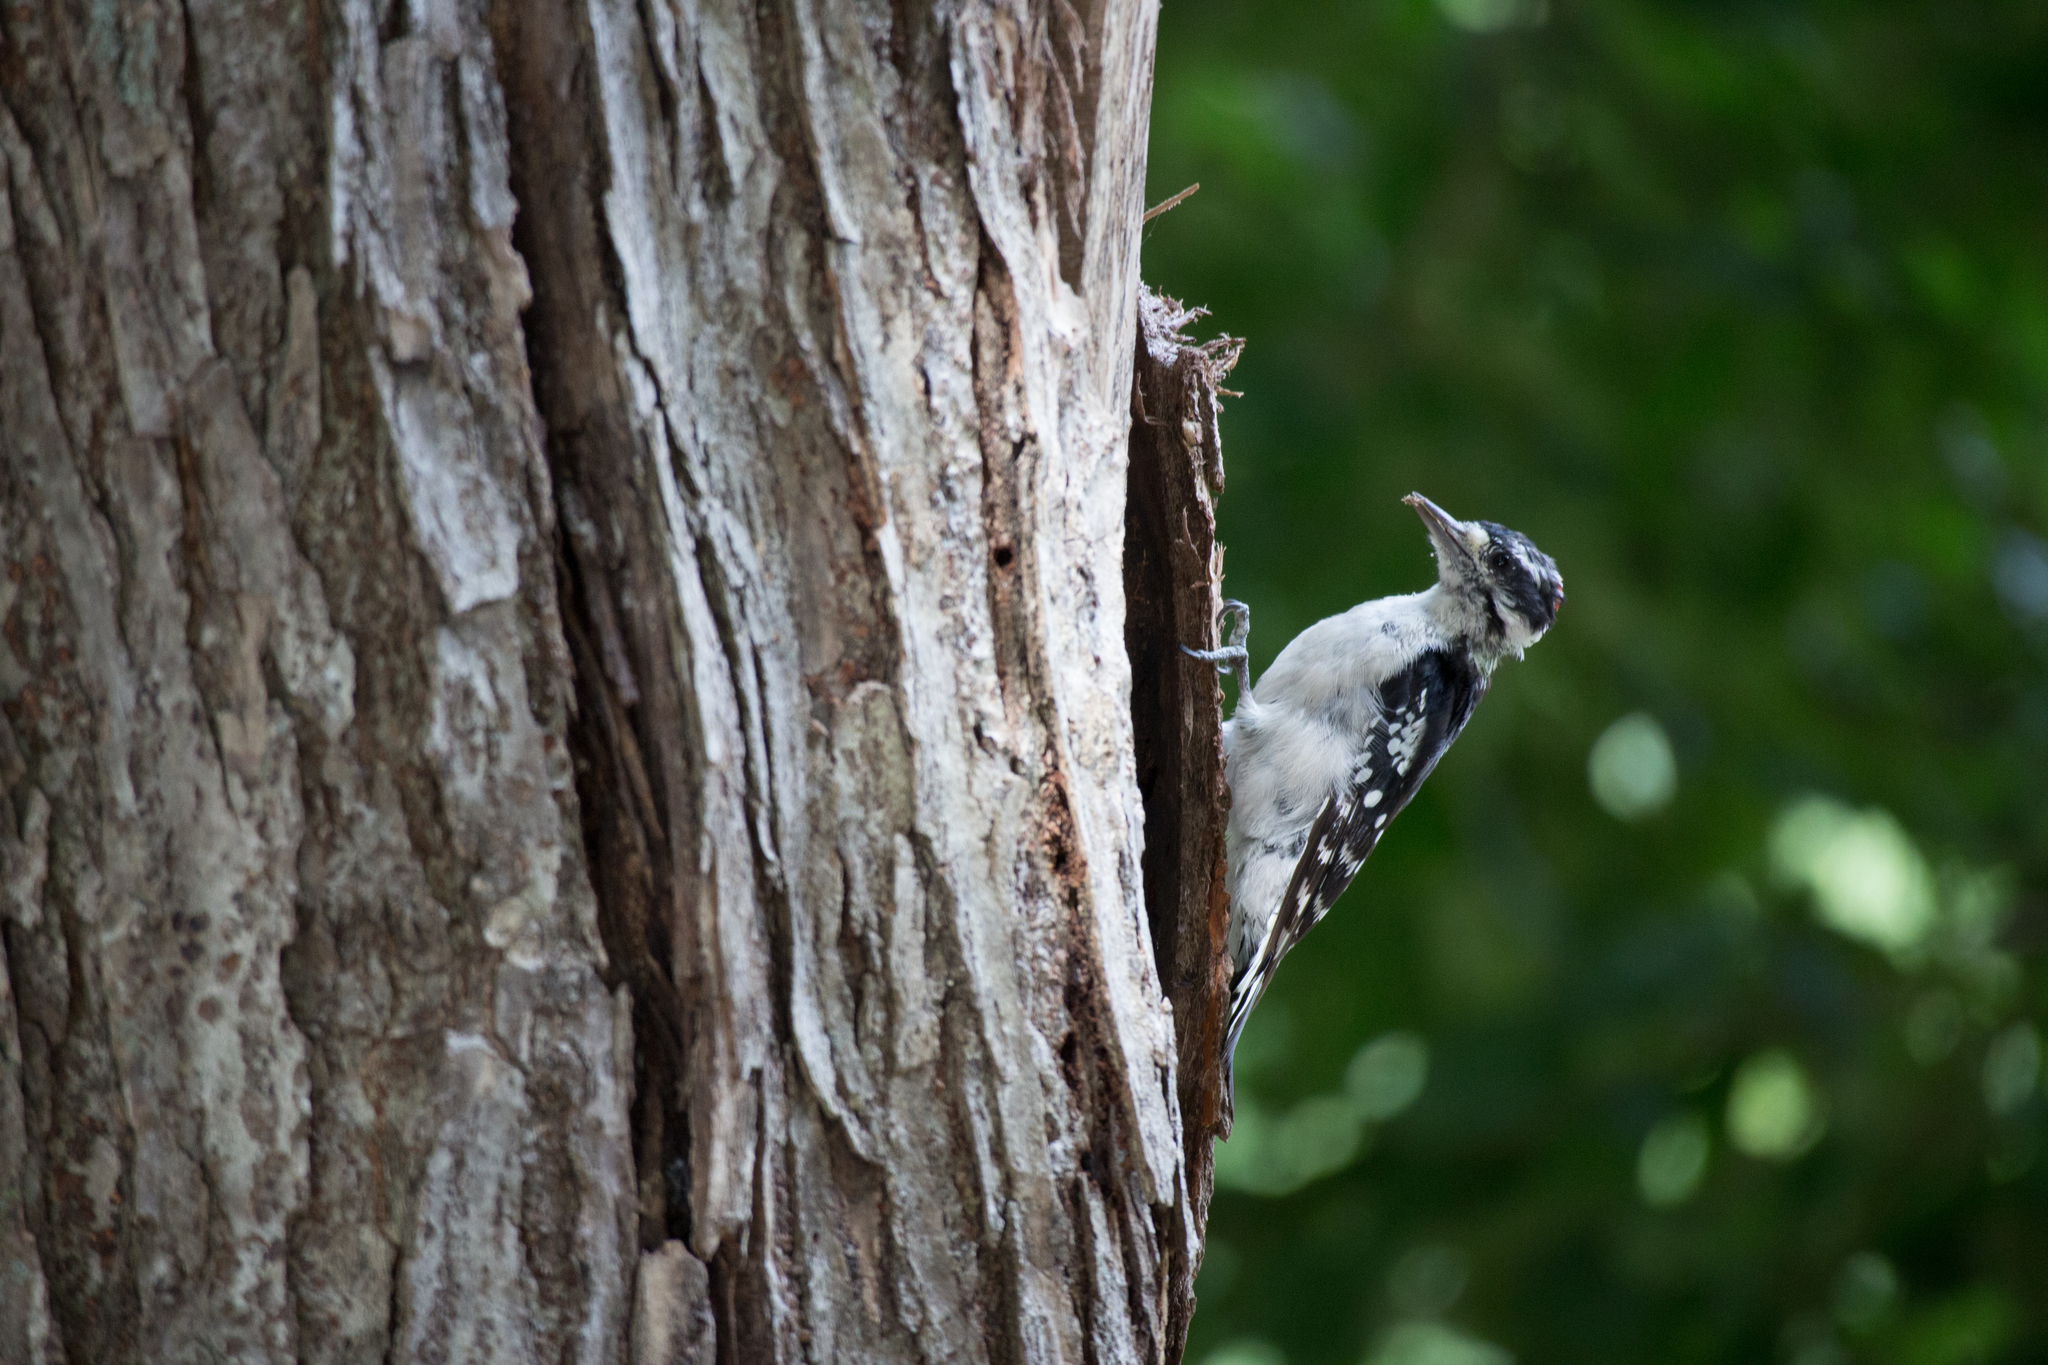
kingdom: Animalia
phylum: Chordata
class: Aves
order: Piciformes
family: Picidae
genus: Dryobates
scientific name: Dryobates pubescens
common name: Downy woodpecker
